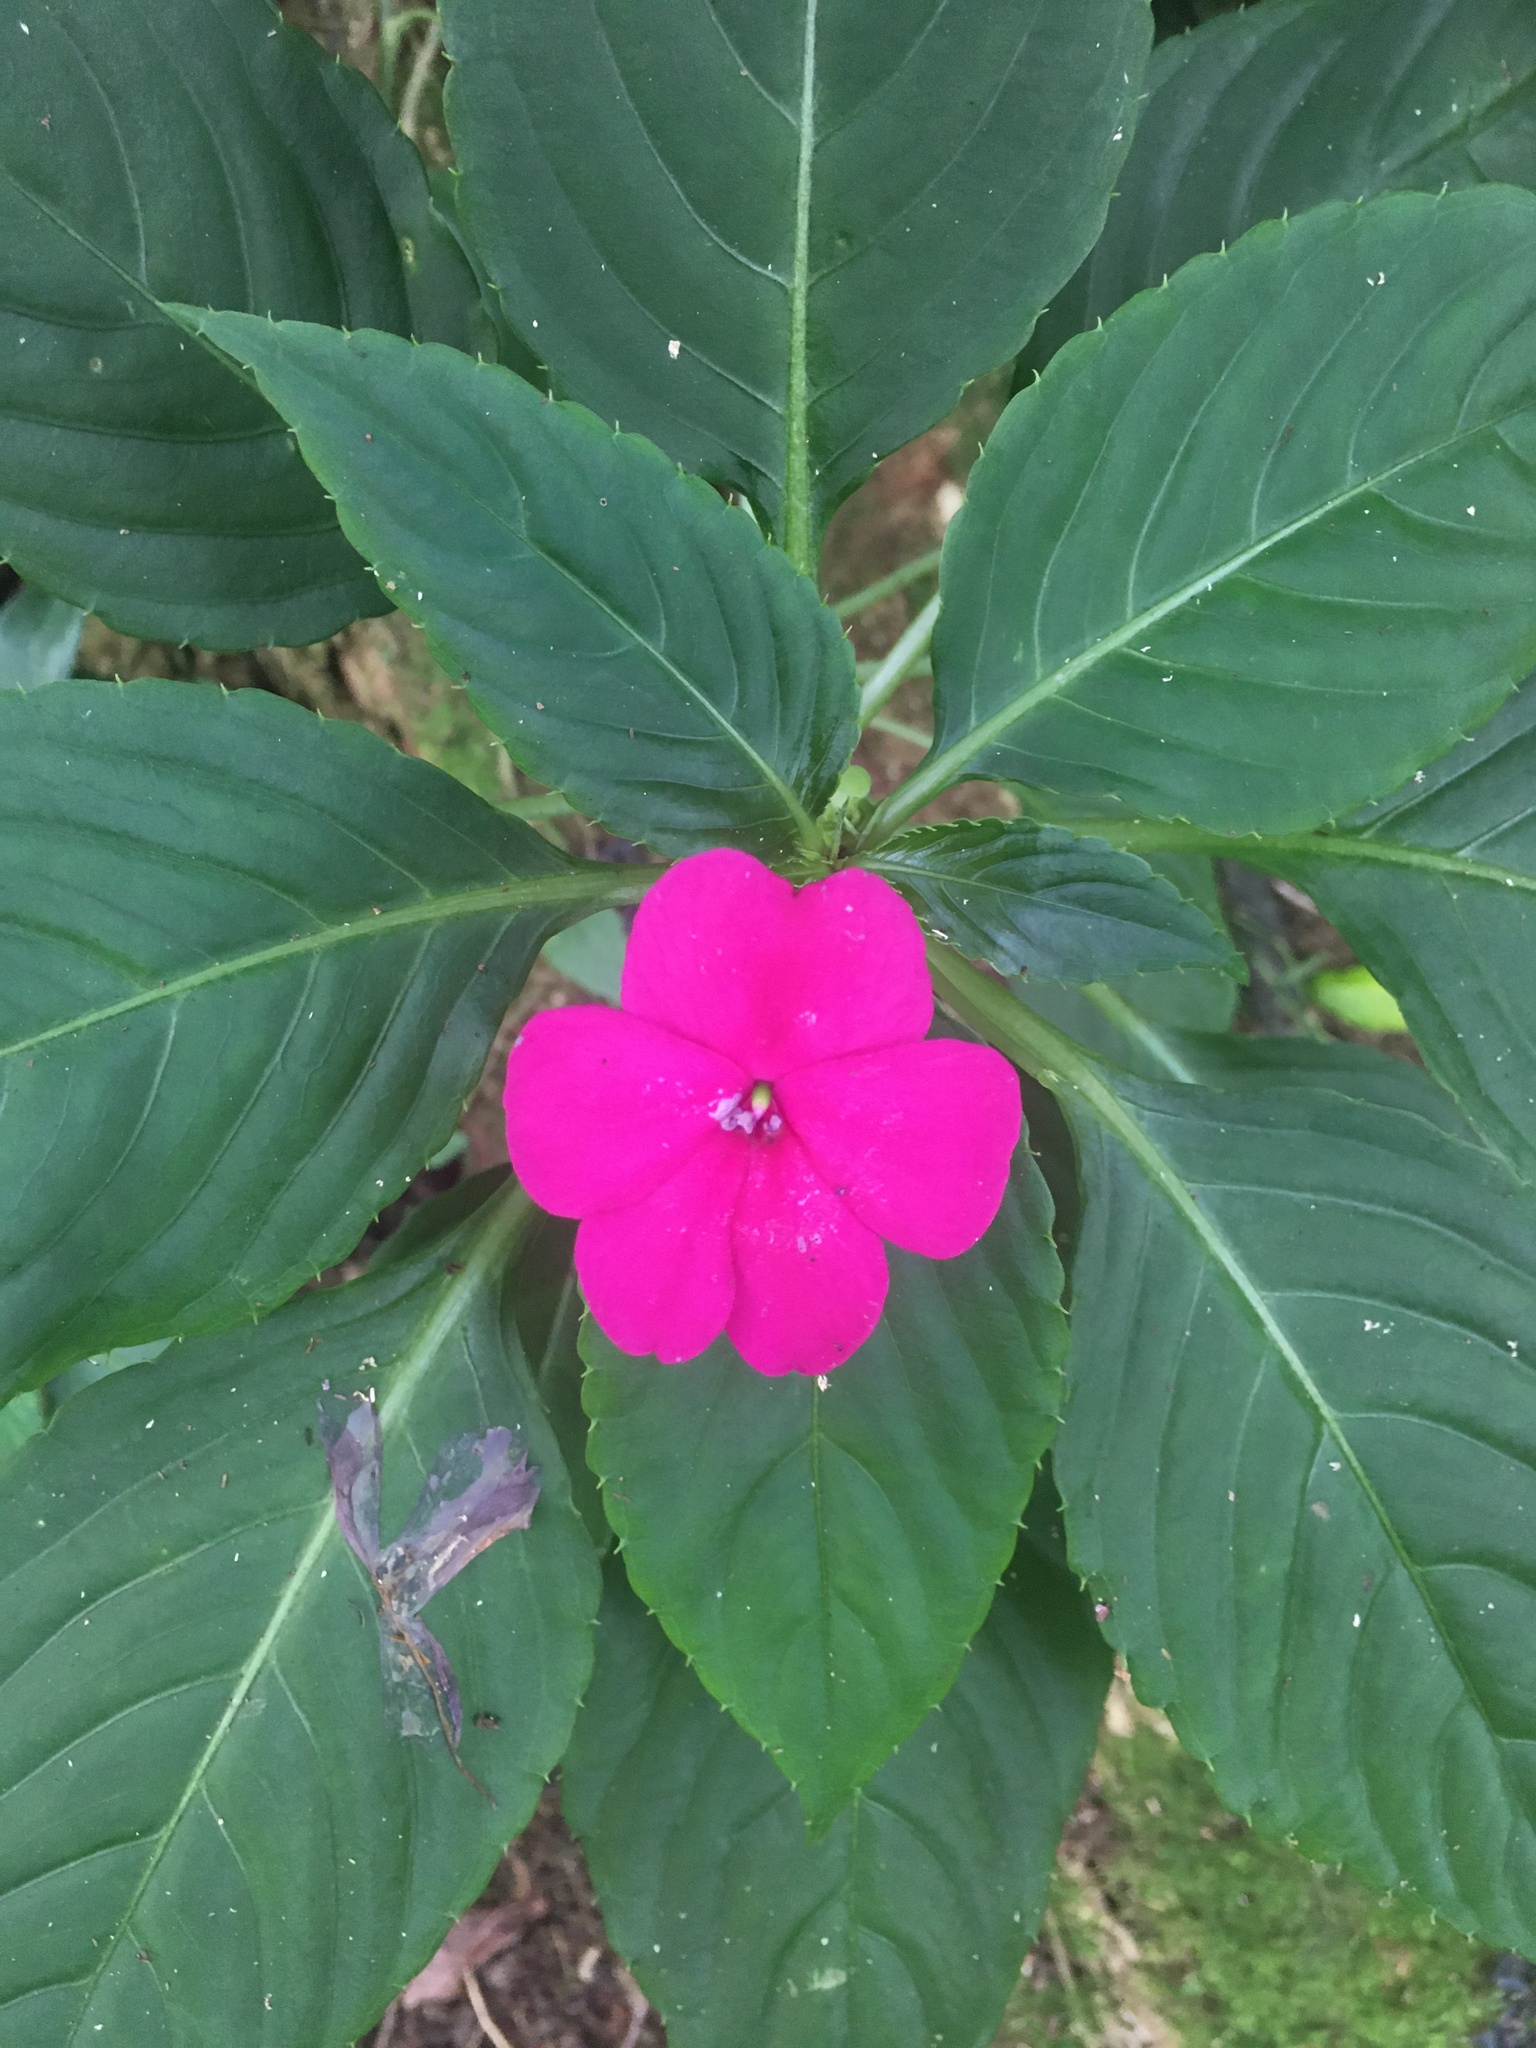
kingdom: Plantae
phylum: Tracheophyta
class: Magnoliopsida
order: Ericales
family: Balsaminaceae
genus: Impatiens
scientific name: Impatiens walleriana
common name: Buzzy lizzy
